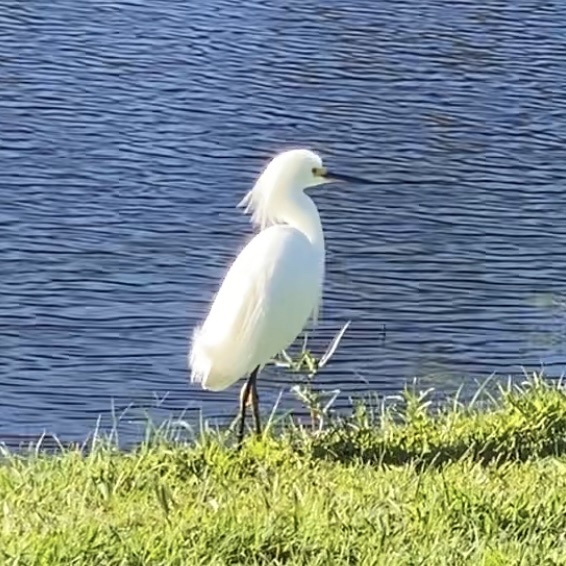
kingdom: Animalia
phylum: Chordata
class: Aves
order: Pelecaniformes
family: Ardeidae
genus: Egretta
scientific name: Egretta thula
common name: Snowy egret
